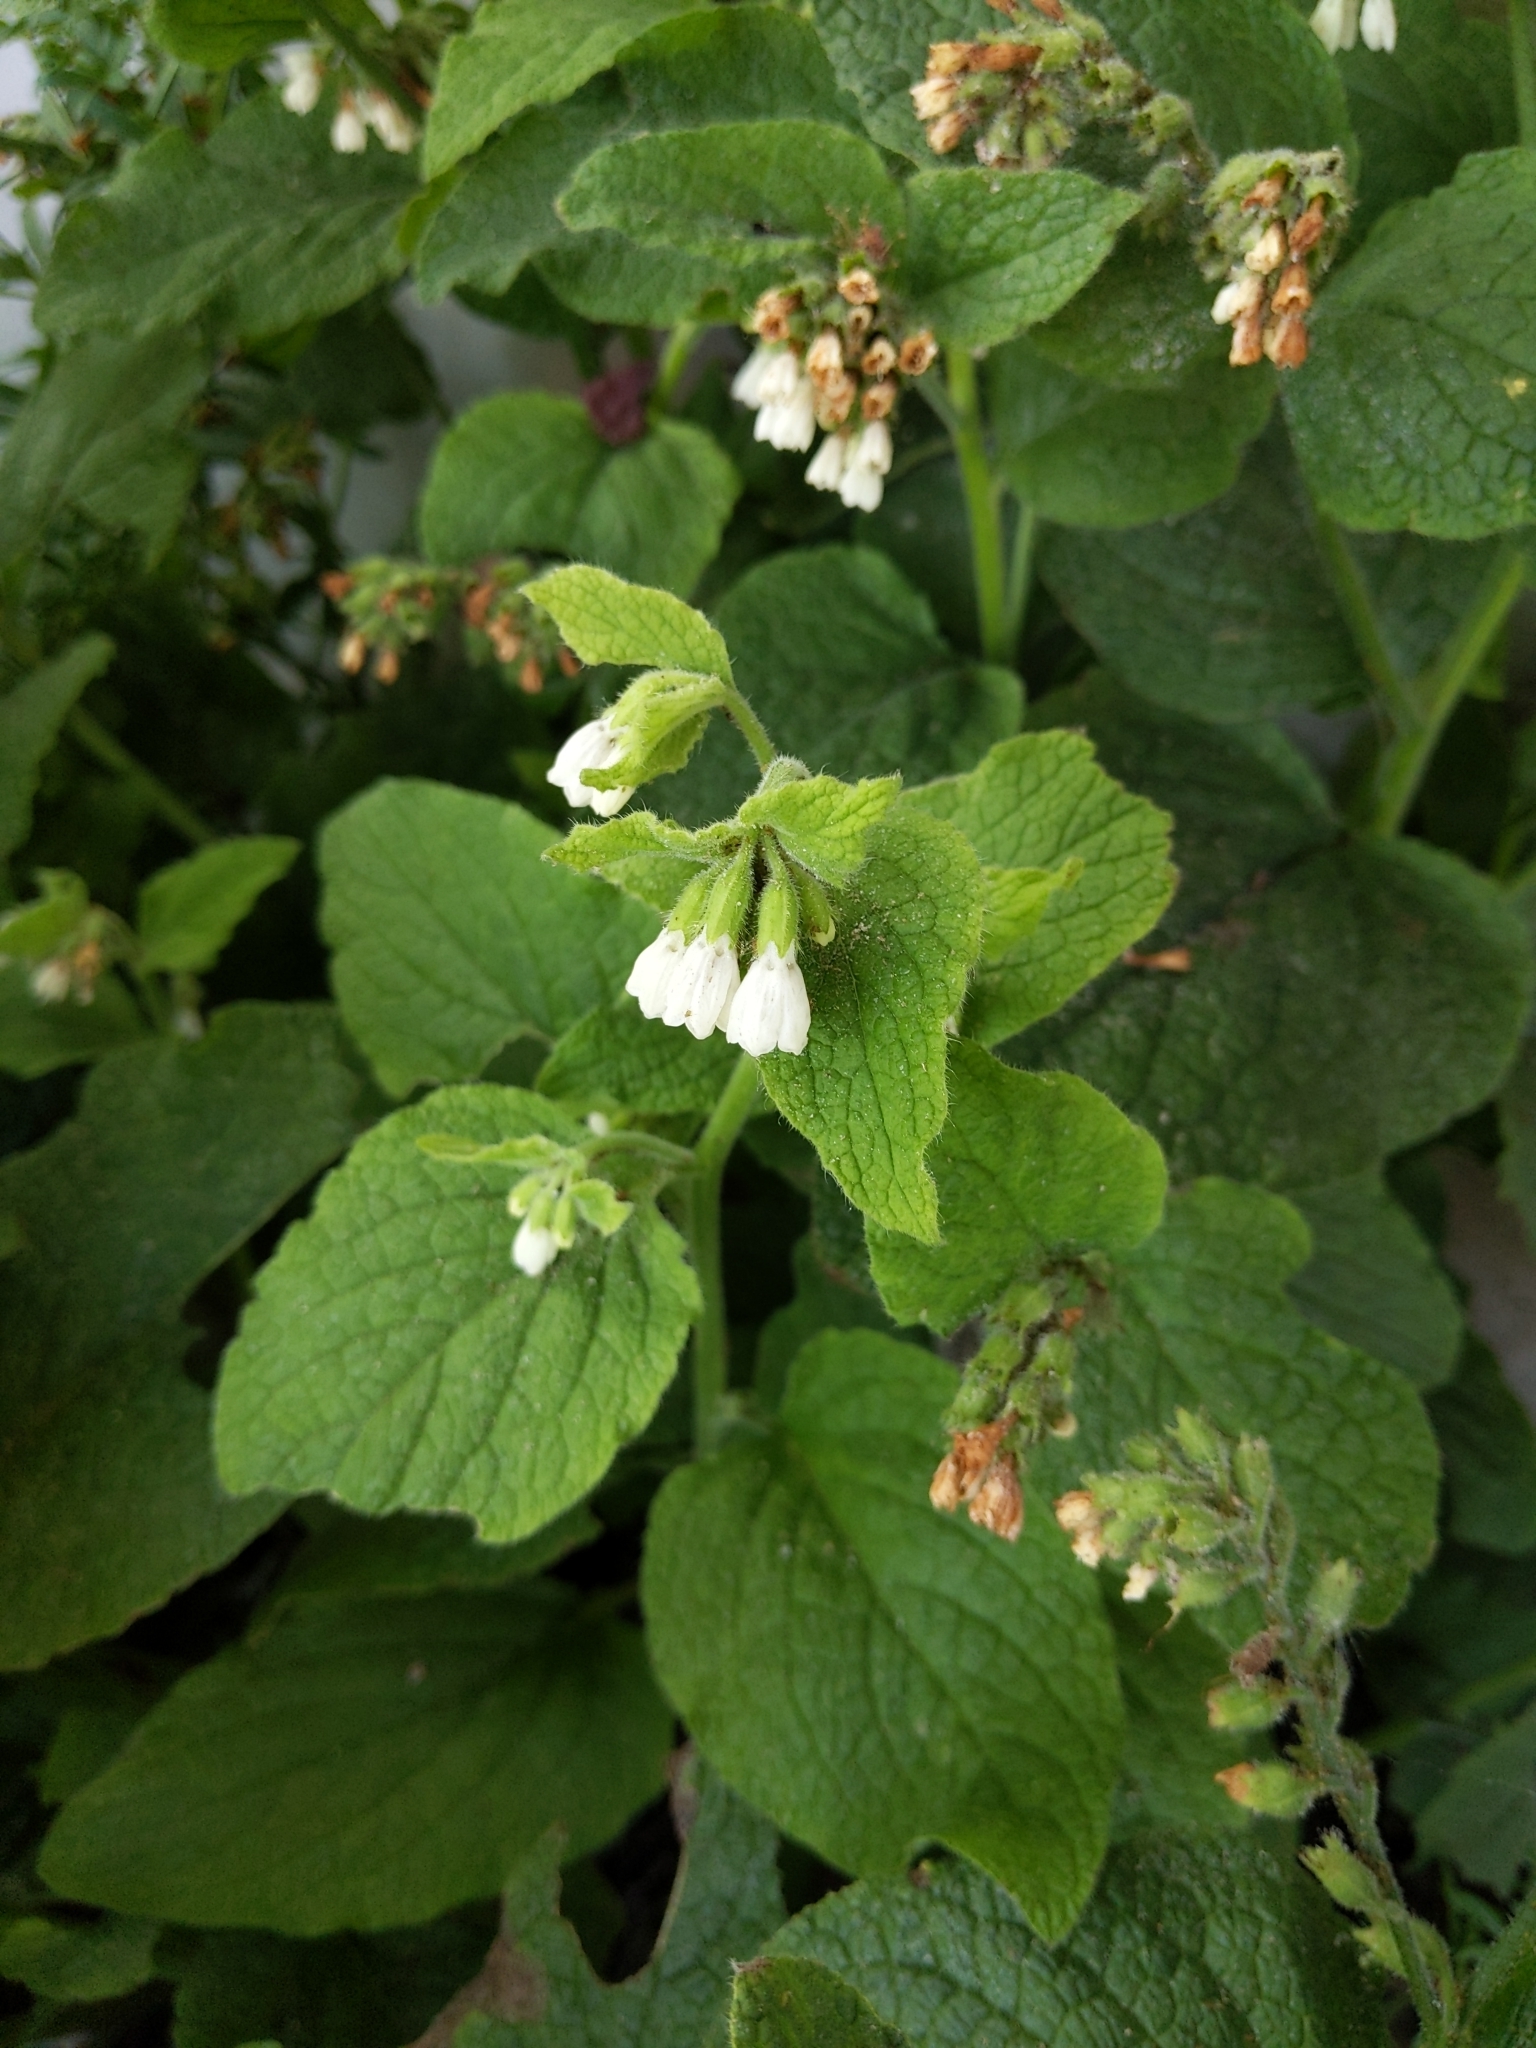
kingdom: Plantae
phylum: Tracheophyta
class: Magnoliopsida
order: Boraginales
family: Boraginaceae
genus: Symphytum
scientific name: Symphytum orientale
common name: White comfrey
